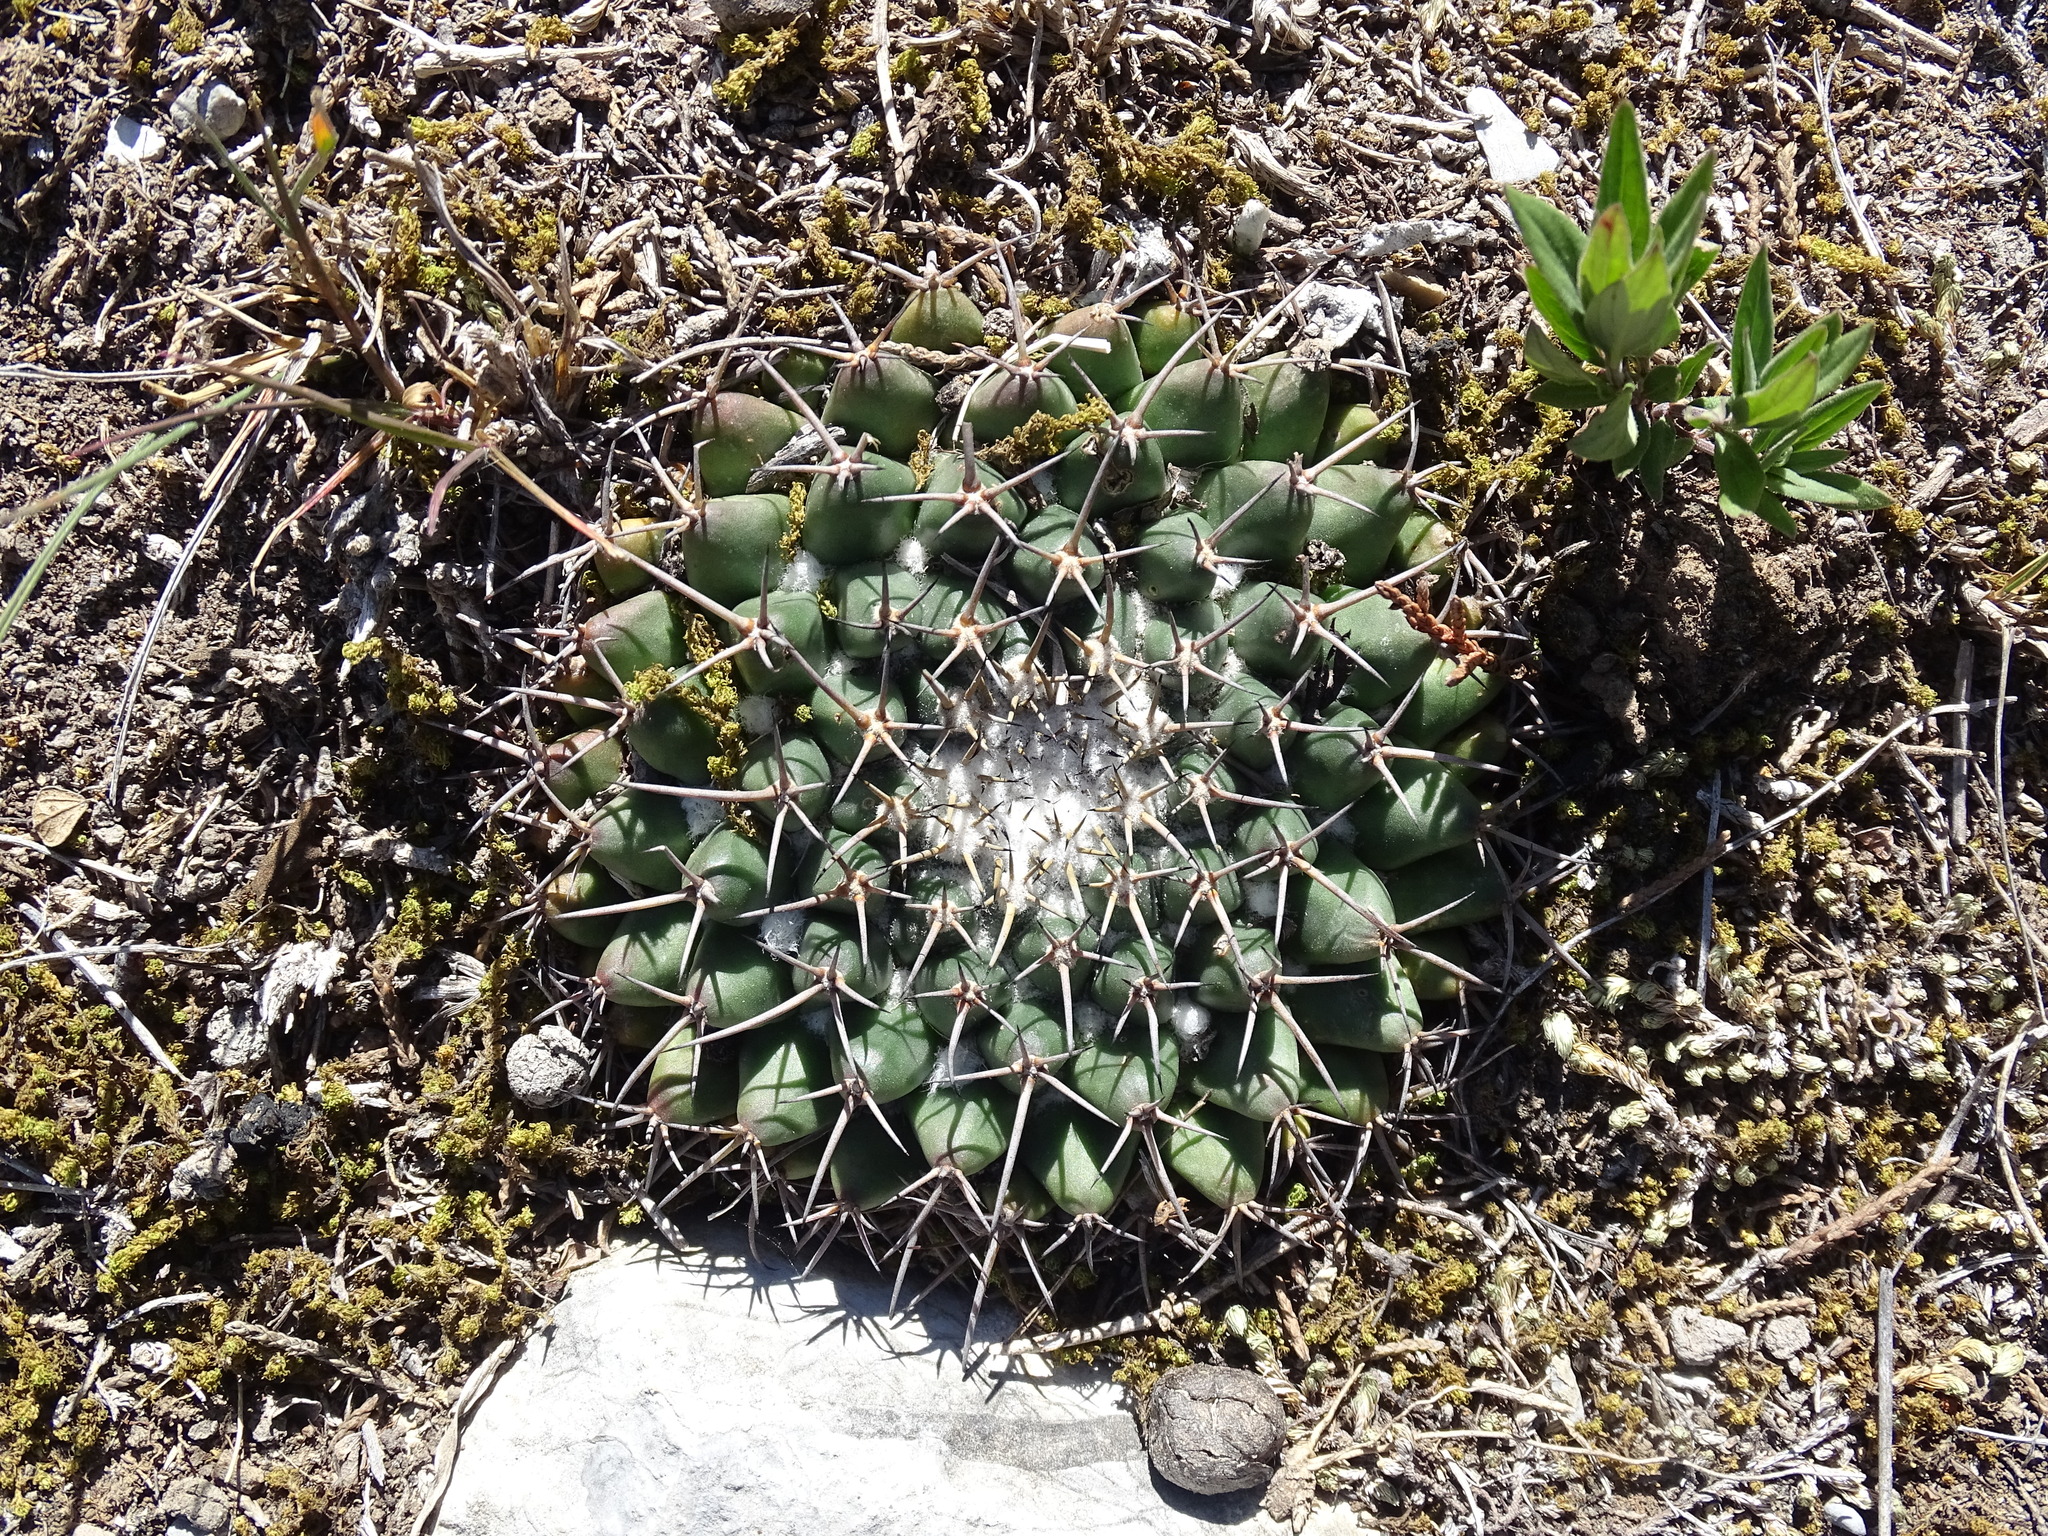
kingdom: Plantae
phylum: Tracheophyta
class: Magnoliopsida
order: Caryophyllales
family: Cactaceae
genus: Mammillaria
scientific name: Mammillaria magnimamma
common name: Mexican pincushion
